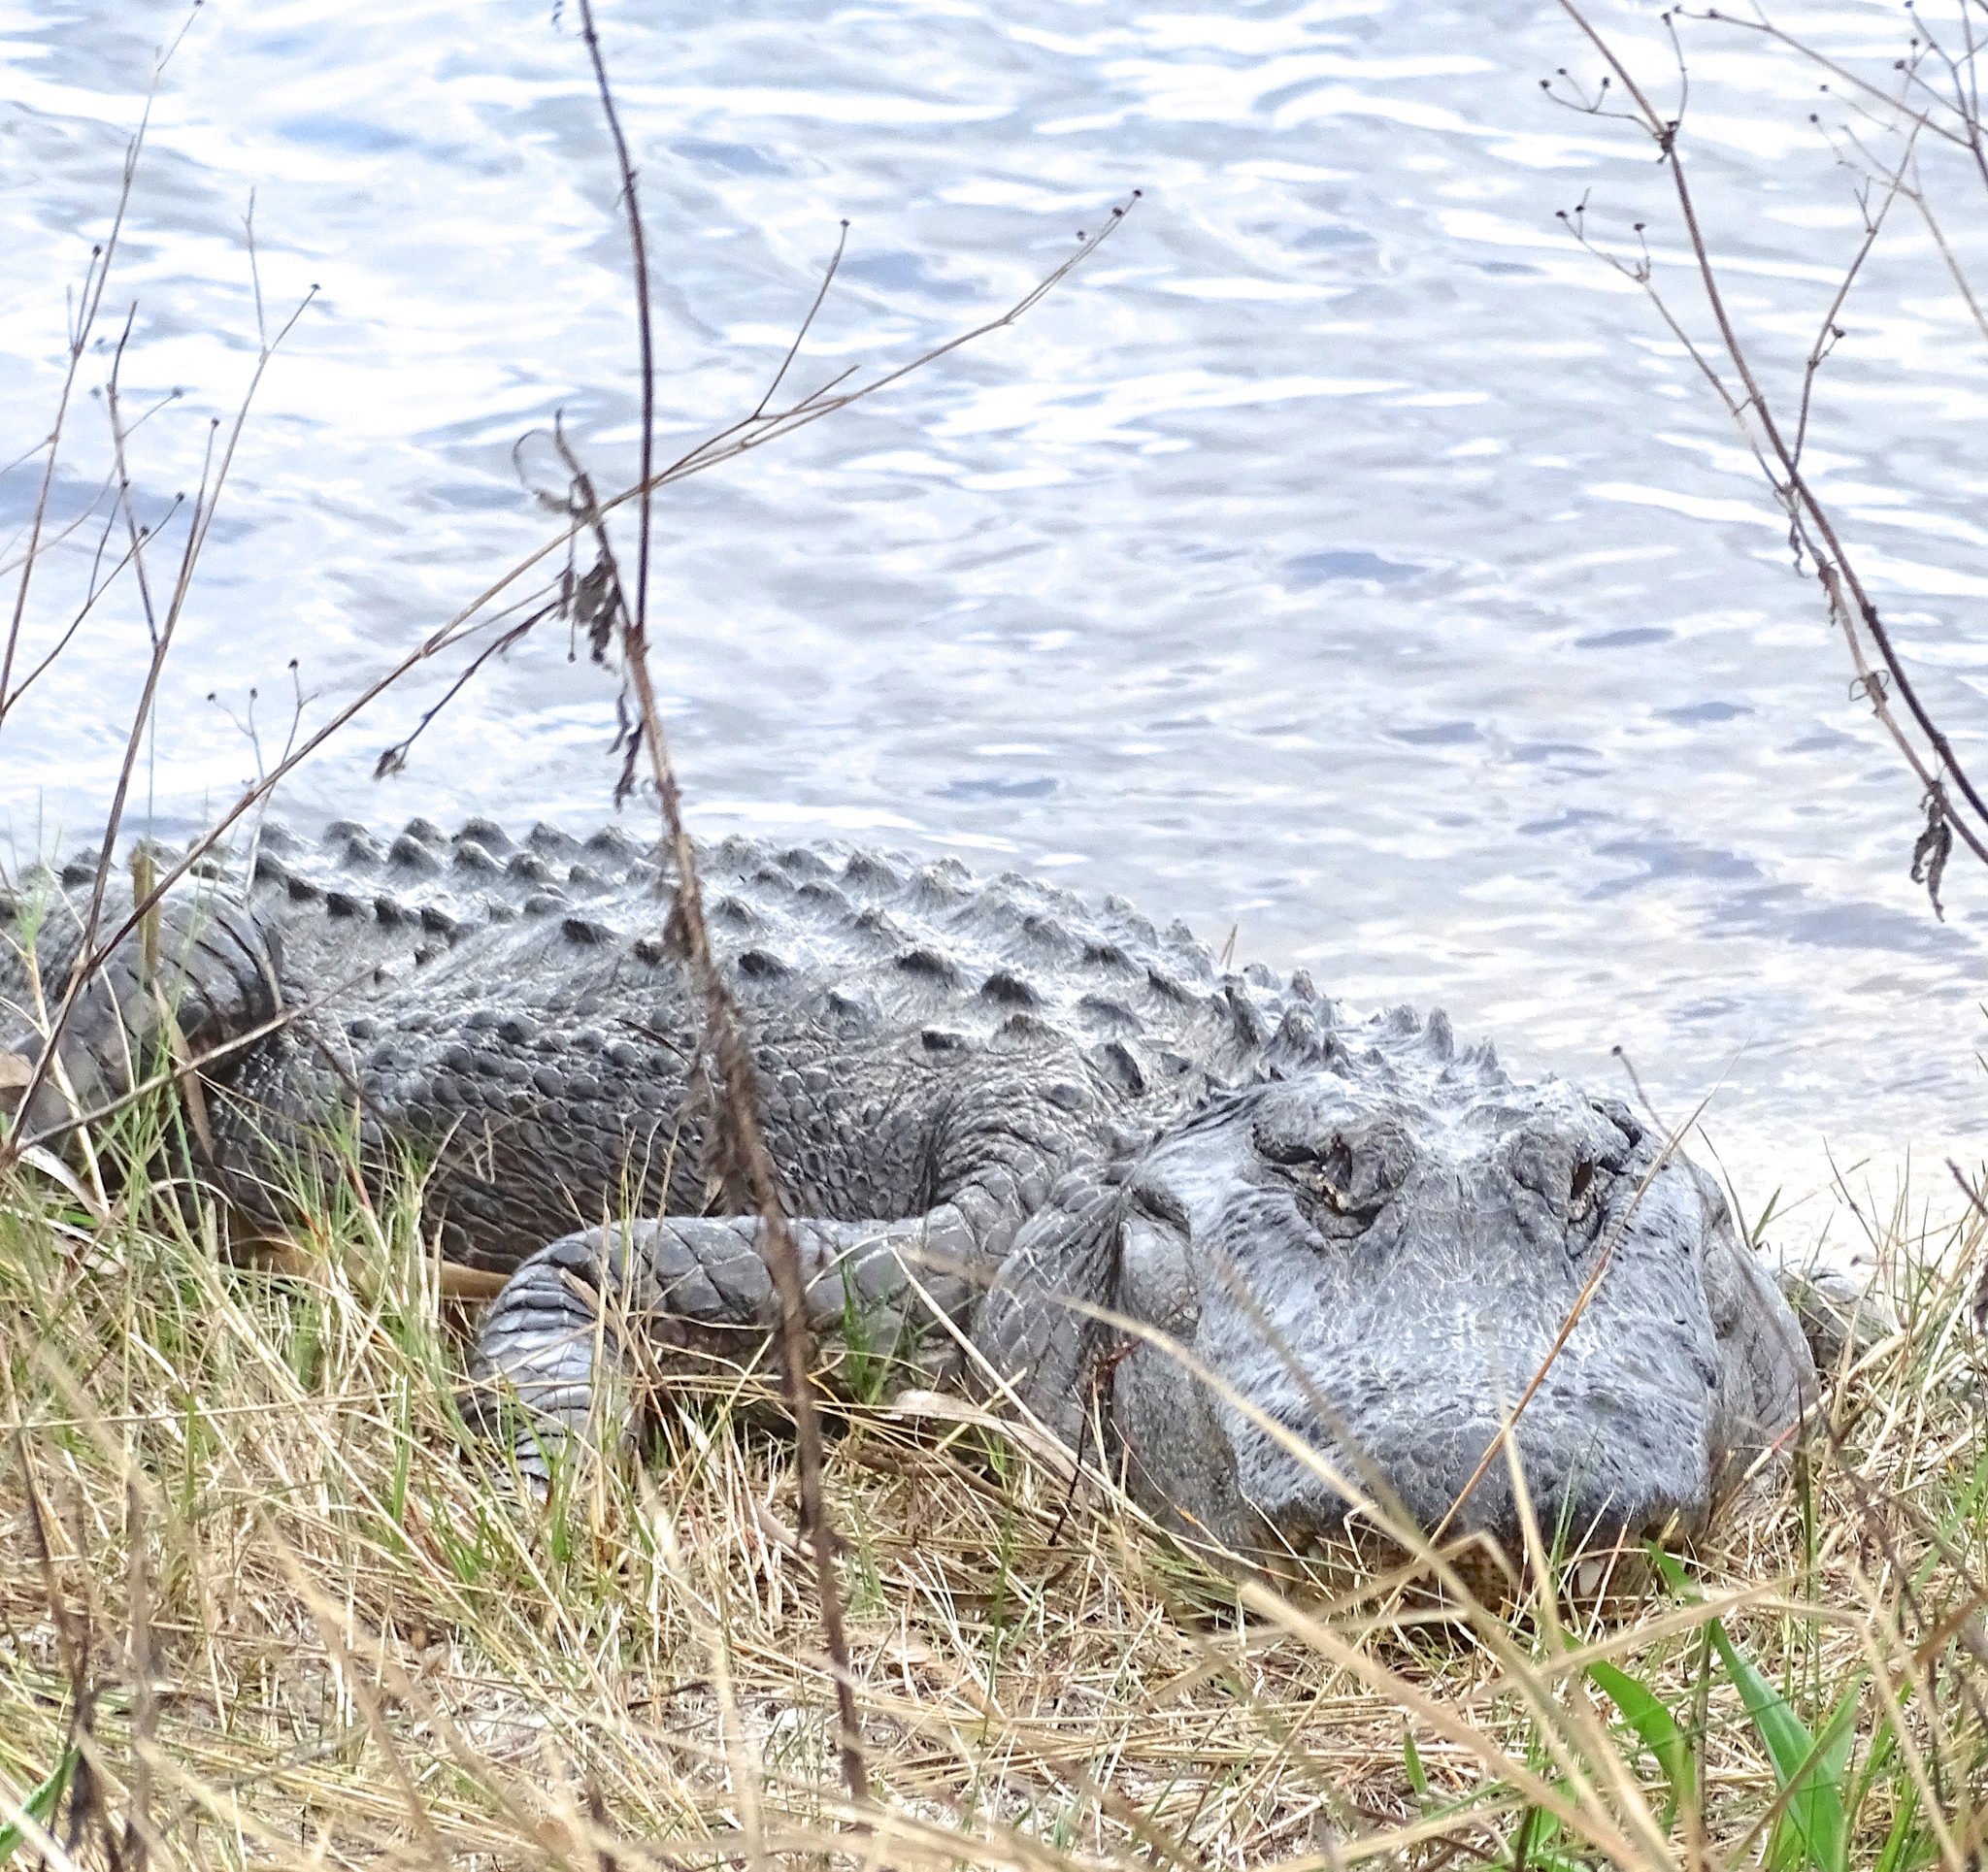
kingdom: Animalia
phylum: Chordata
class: Crocodylia
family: Alligatoridae
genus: Alligator
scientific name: Alligator mississippiensis
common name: American alligator
